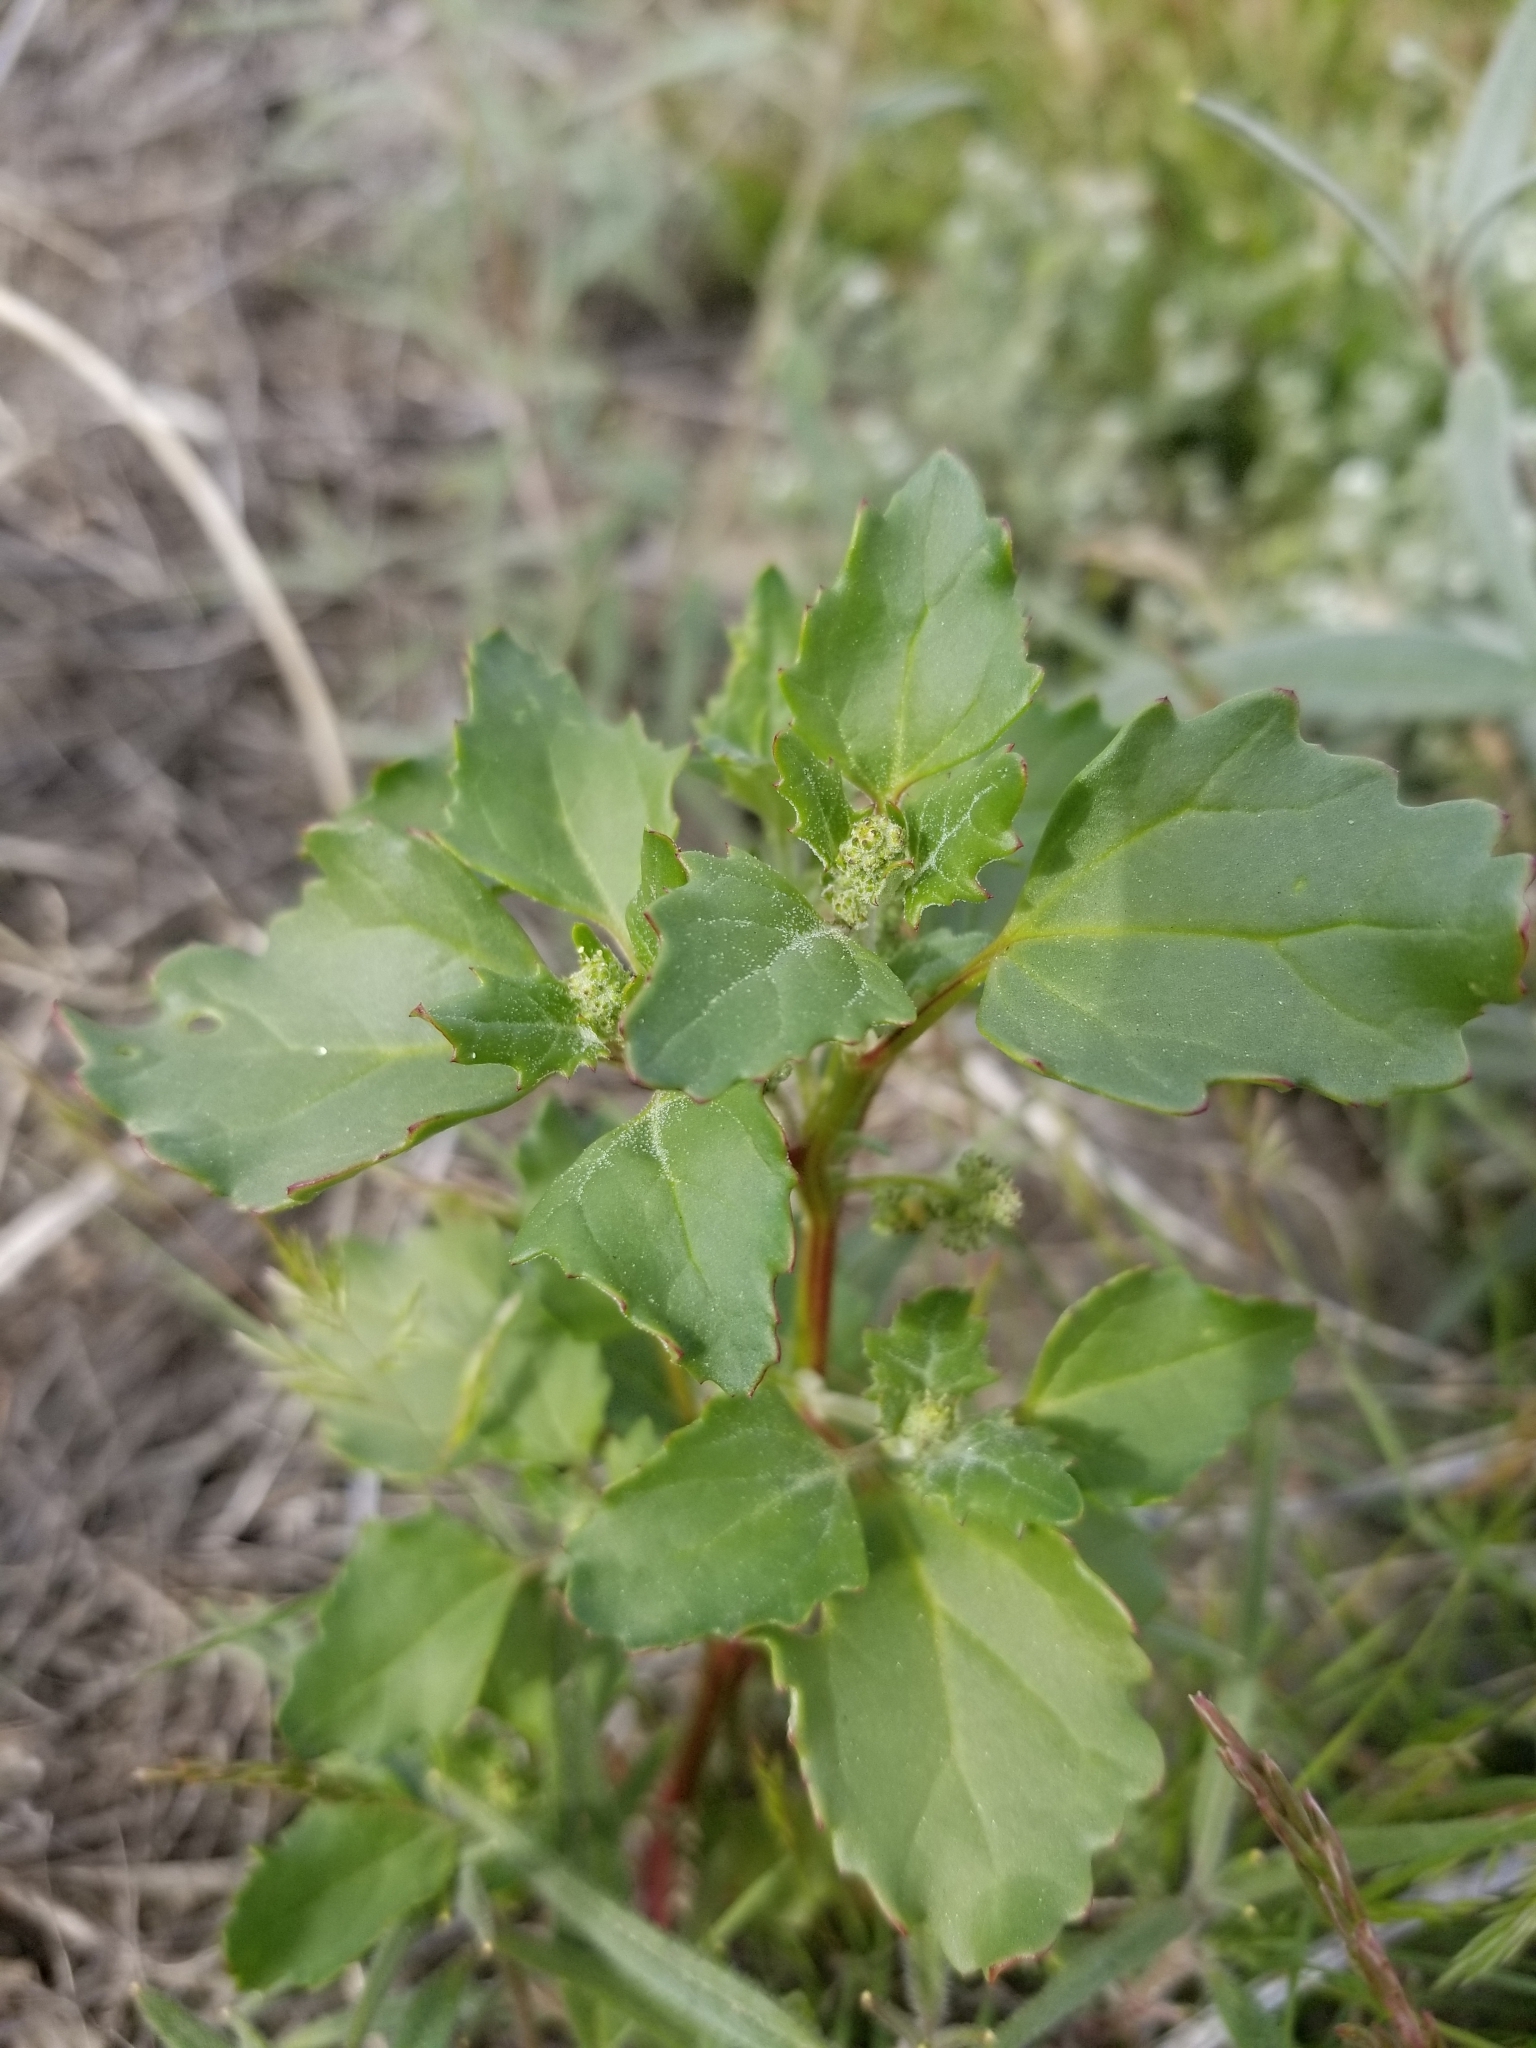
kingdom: Plantae
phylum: Tracheophyta
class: Magnoliopsida
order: Caryophyllales
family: Amaranthaceae
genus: Chenopodiastrum
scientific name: Chenopodiastrum murale
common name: Sowbane
